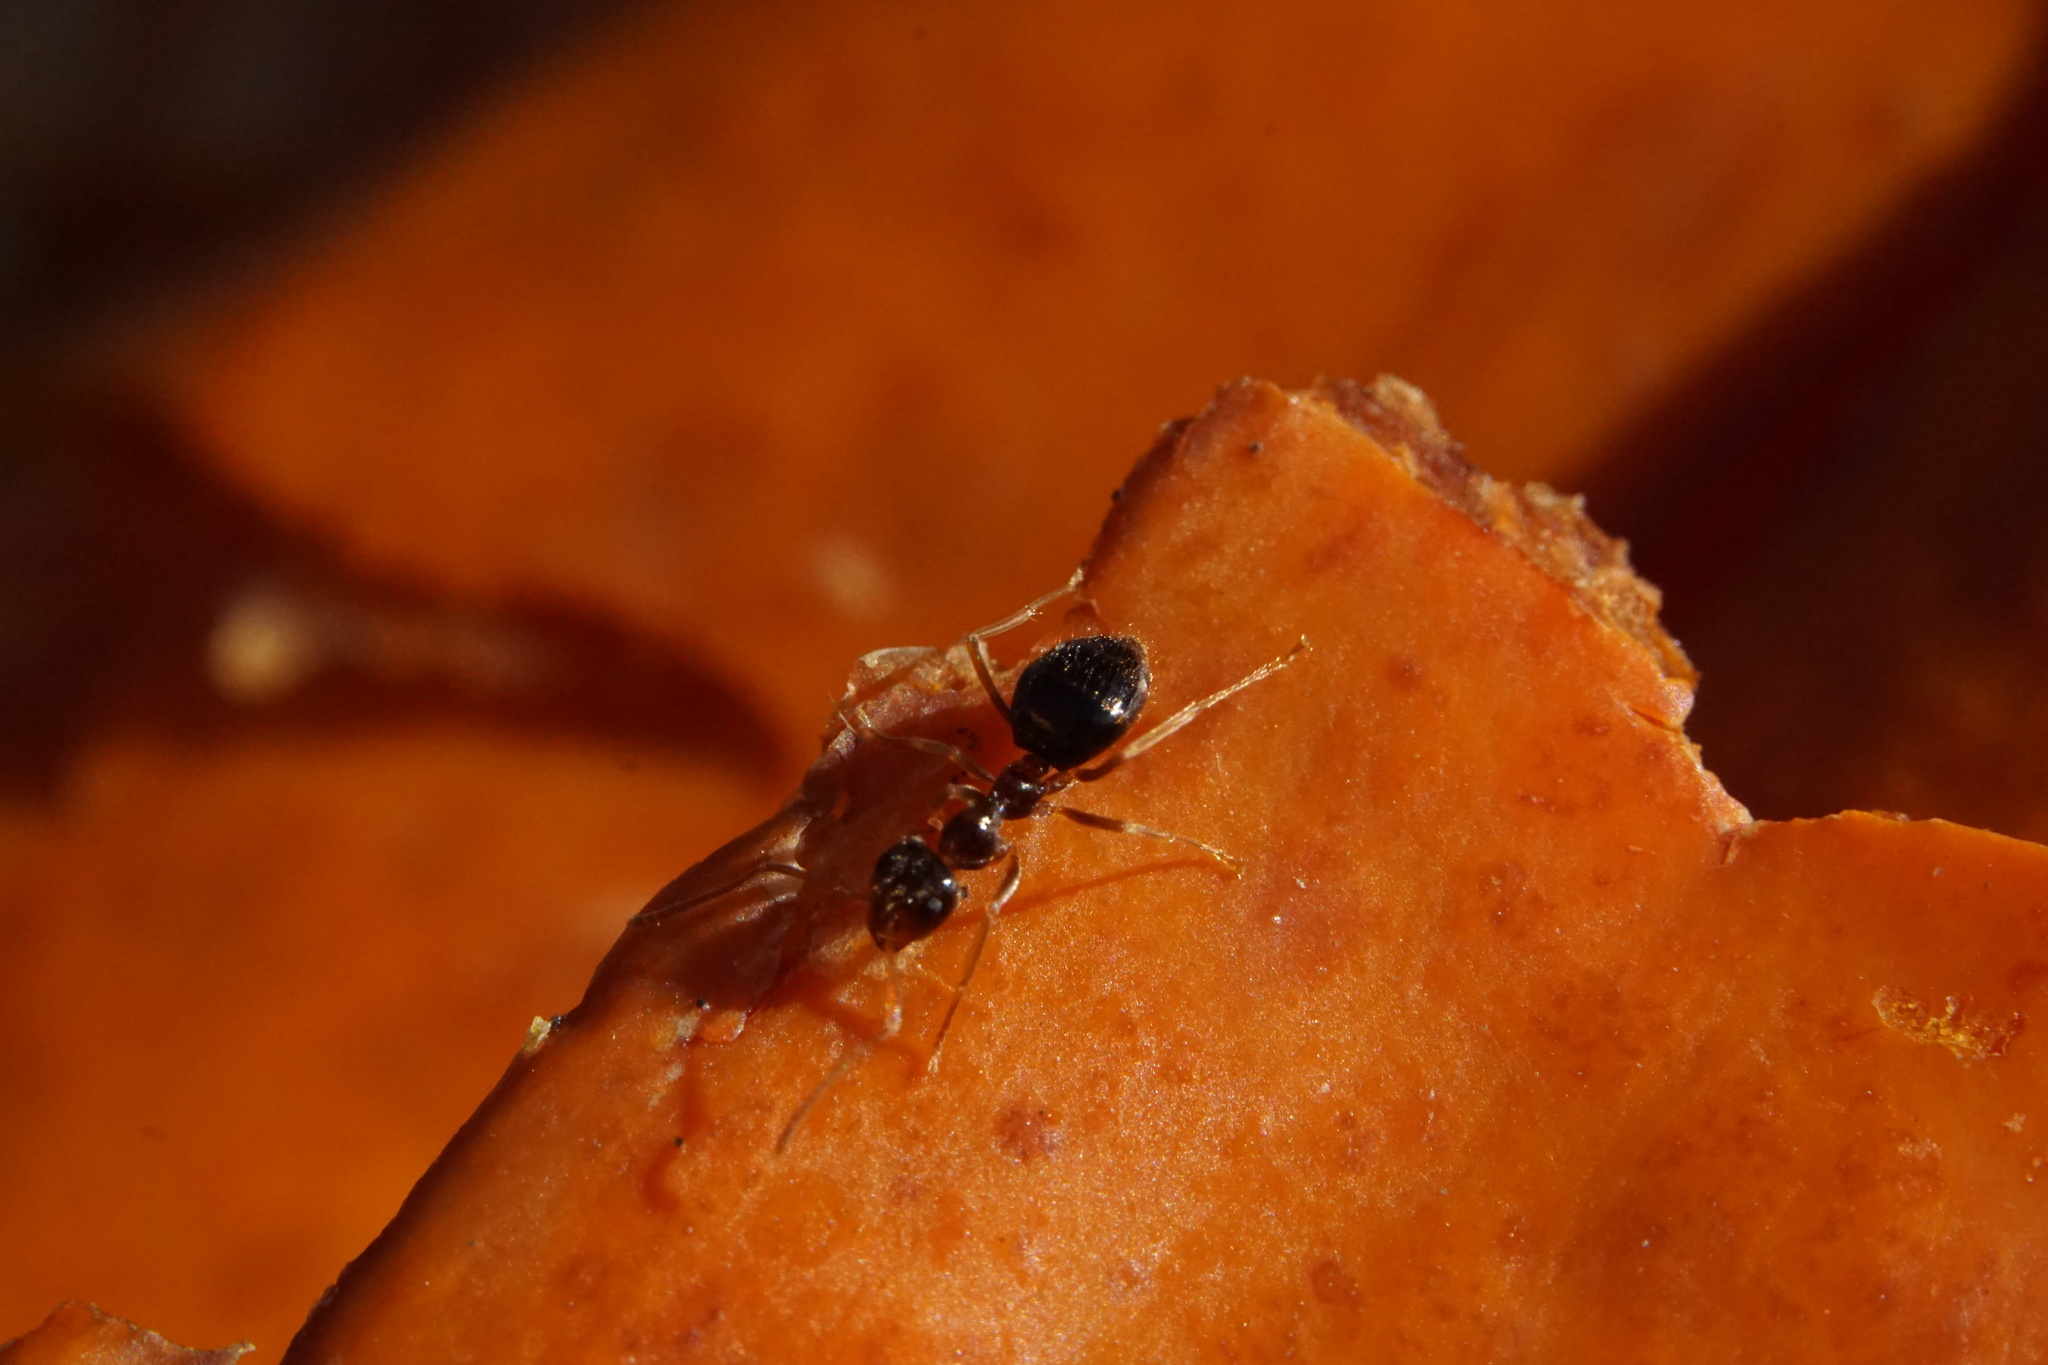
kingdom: Animalia
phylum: Arthropoda
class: Insecta
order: Hymenoptera
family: Formicidae
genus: Prenolepis
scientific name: Prenolepis imparis
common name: Small honey ant
